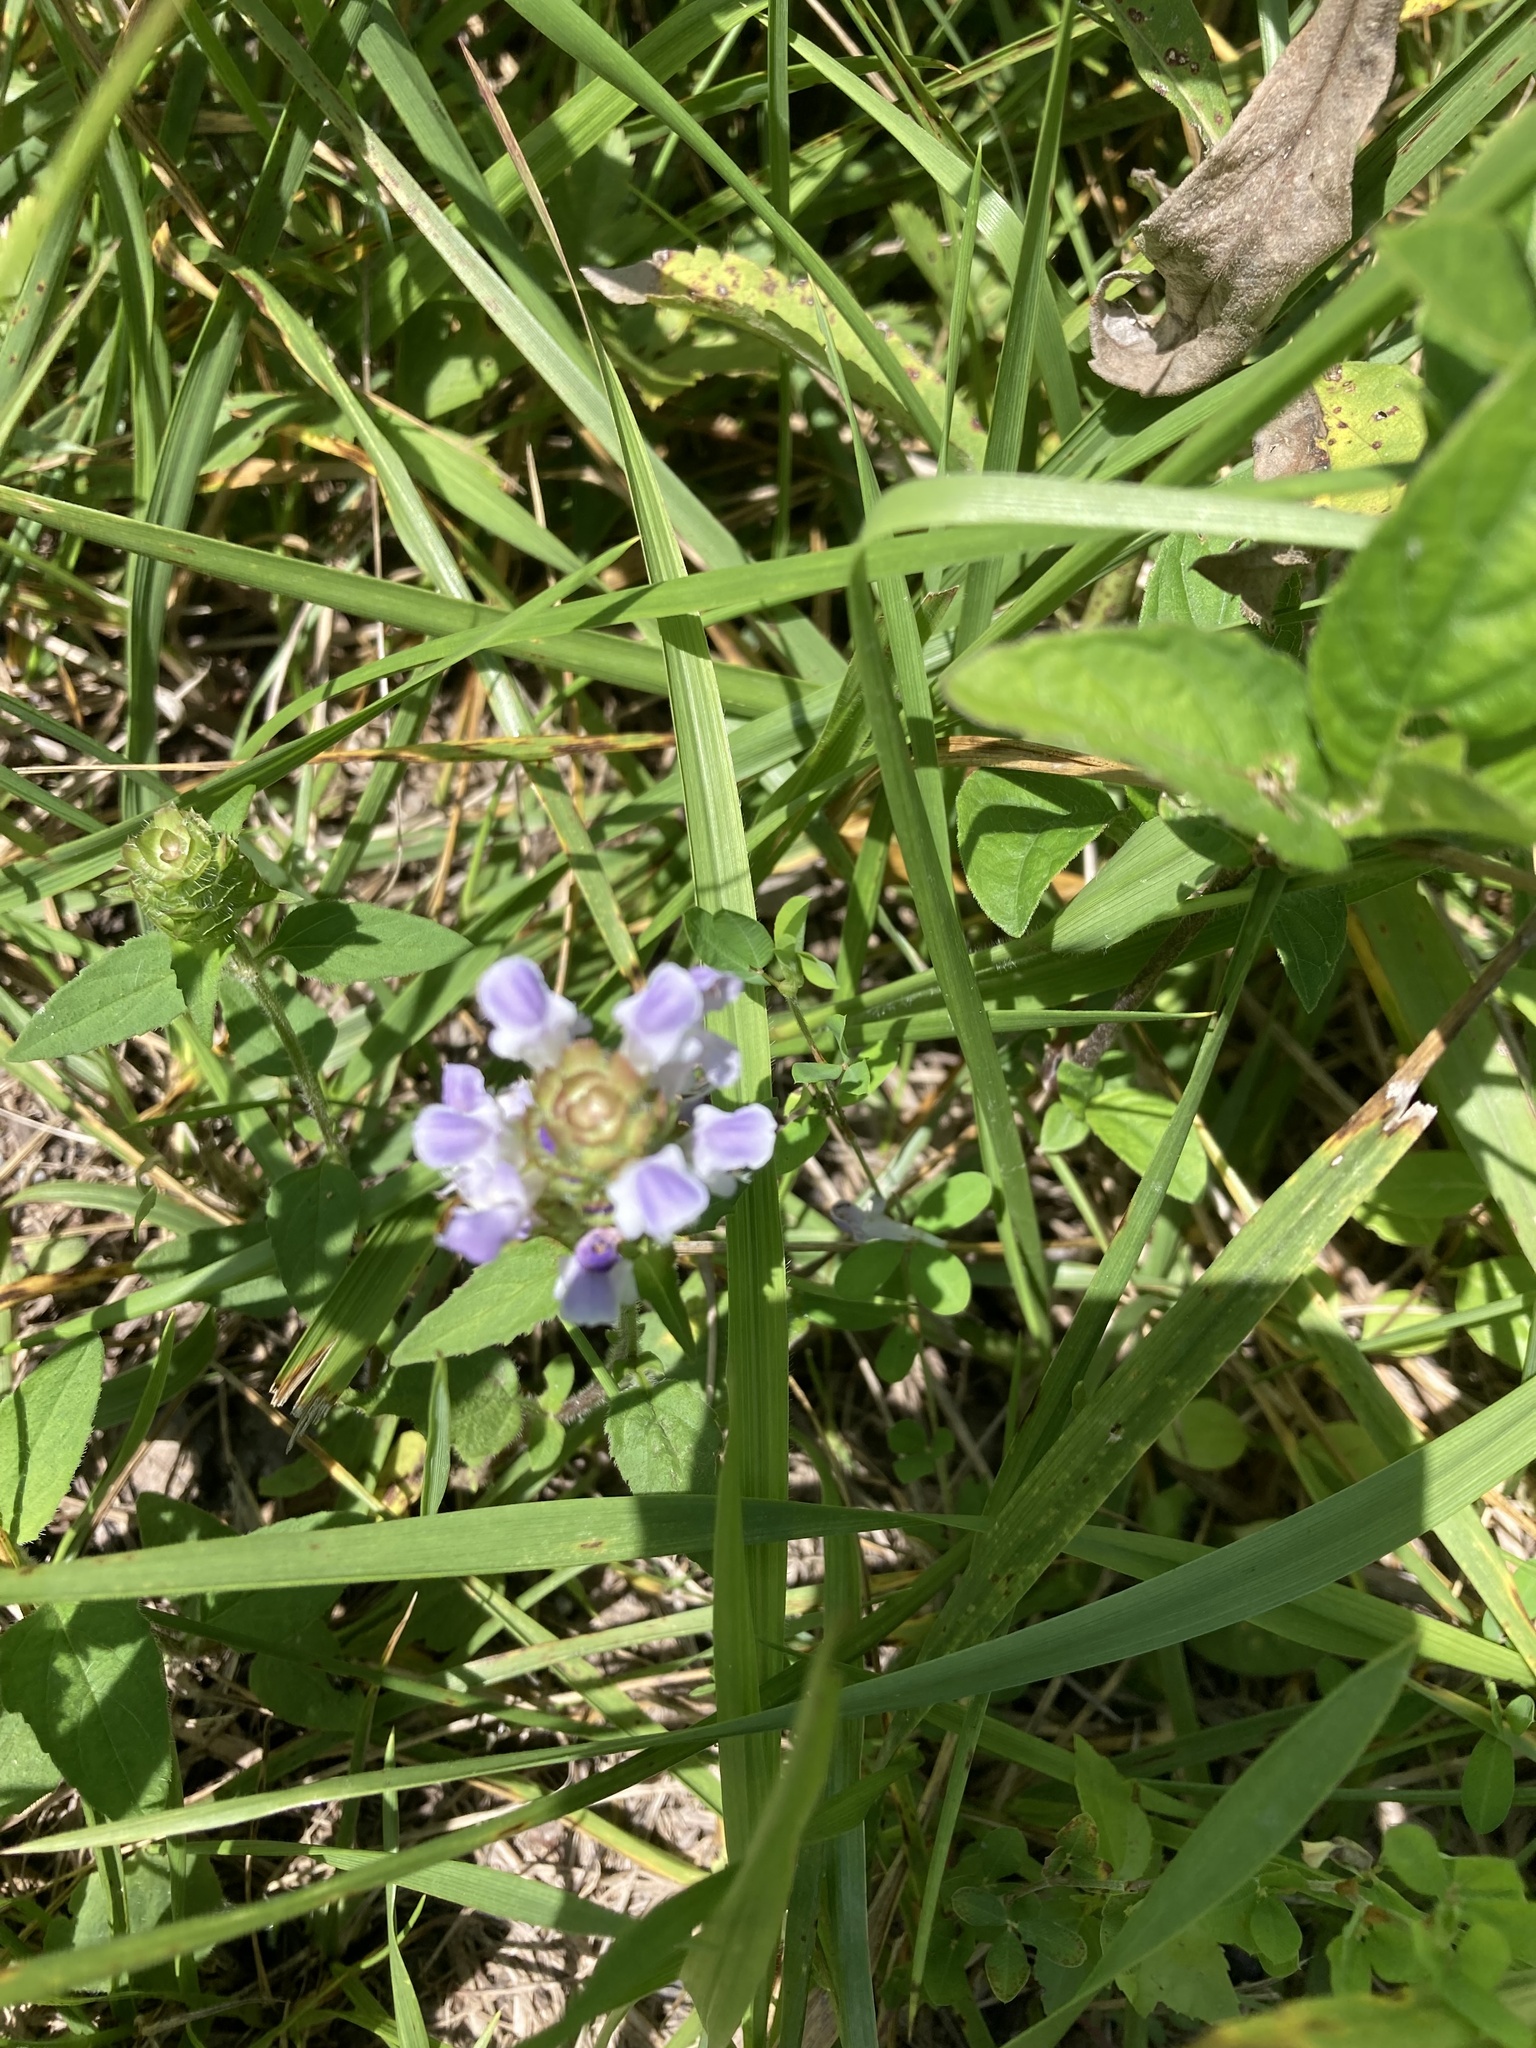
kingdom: Plantae
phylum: Tracheophyta
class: Magnoliopsida
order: Lamiales
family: Lamiaceae
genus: Prunella
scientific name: Prunella vulgaris
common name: Heal-all
